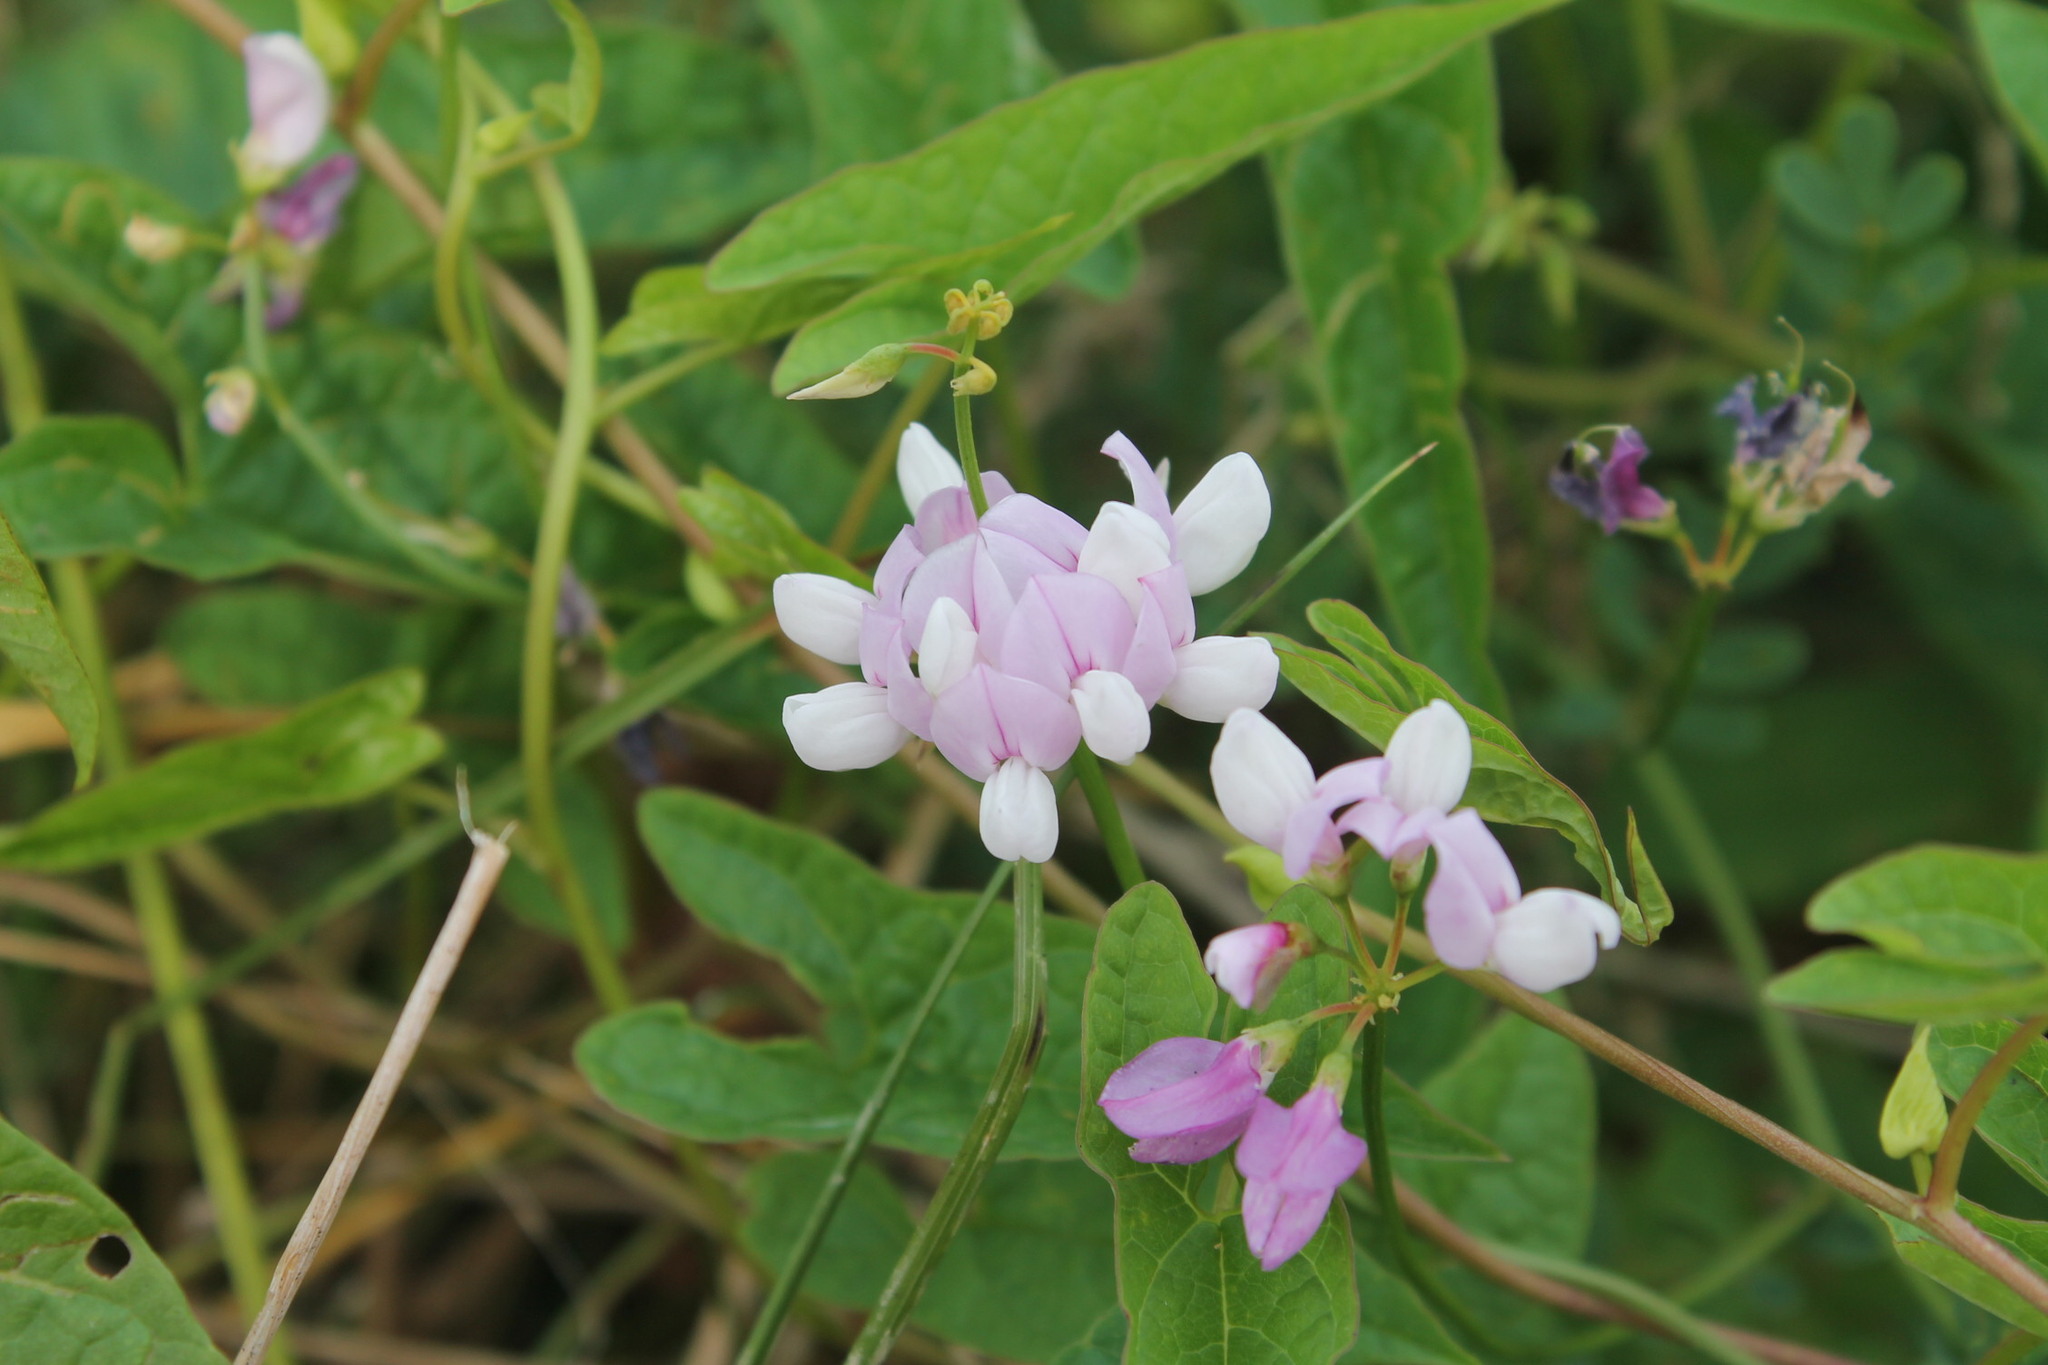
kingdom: Plantae
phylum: Tracheophyta
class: Magnoliopsida
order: Fabales
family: Fabaceae
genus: Coronilla
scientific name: Coronilla varia
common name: Crownvetch
